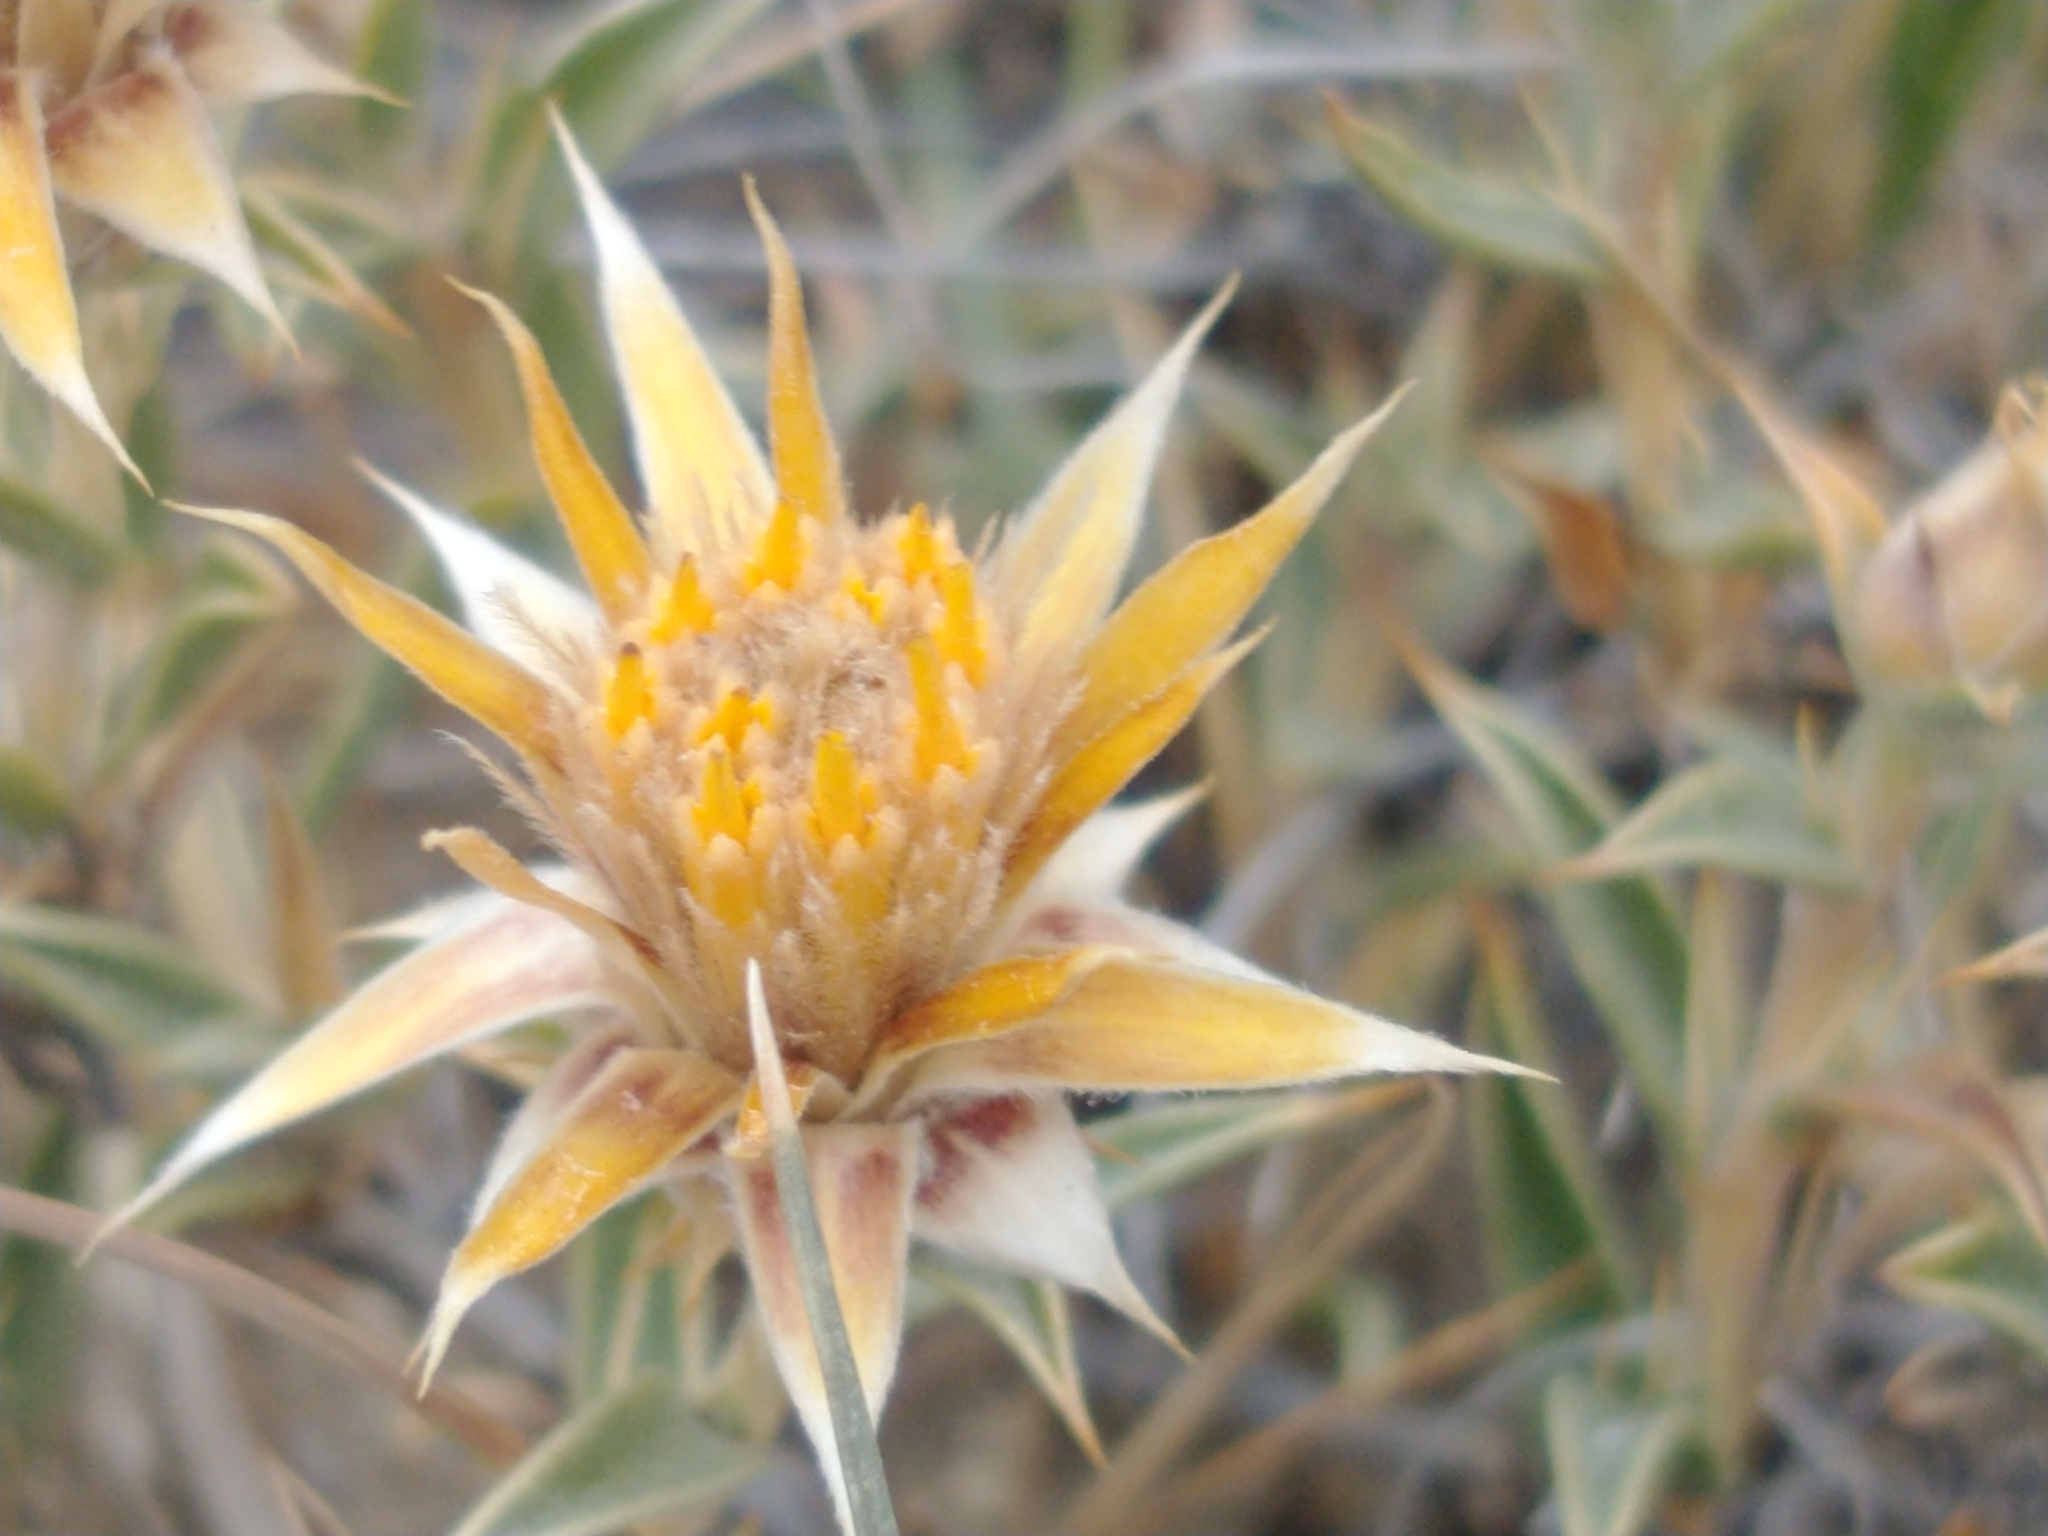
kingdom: Plantae
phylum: Tracheophyta
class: Magnoliopsida
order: Asterales
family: Asteraceae
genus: Chuquiraga
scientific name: Chuquiraga avellanedae
